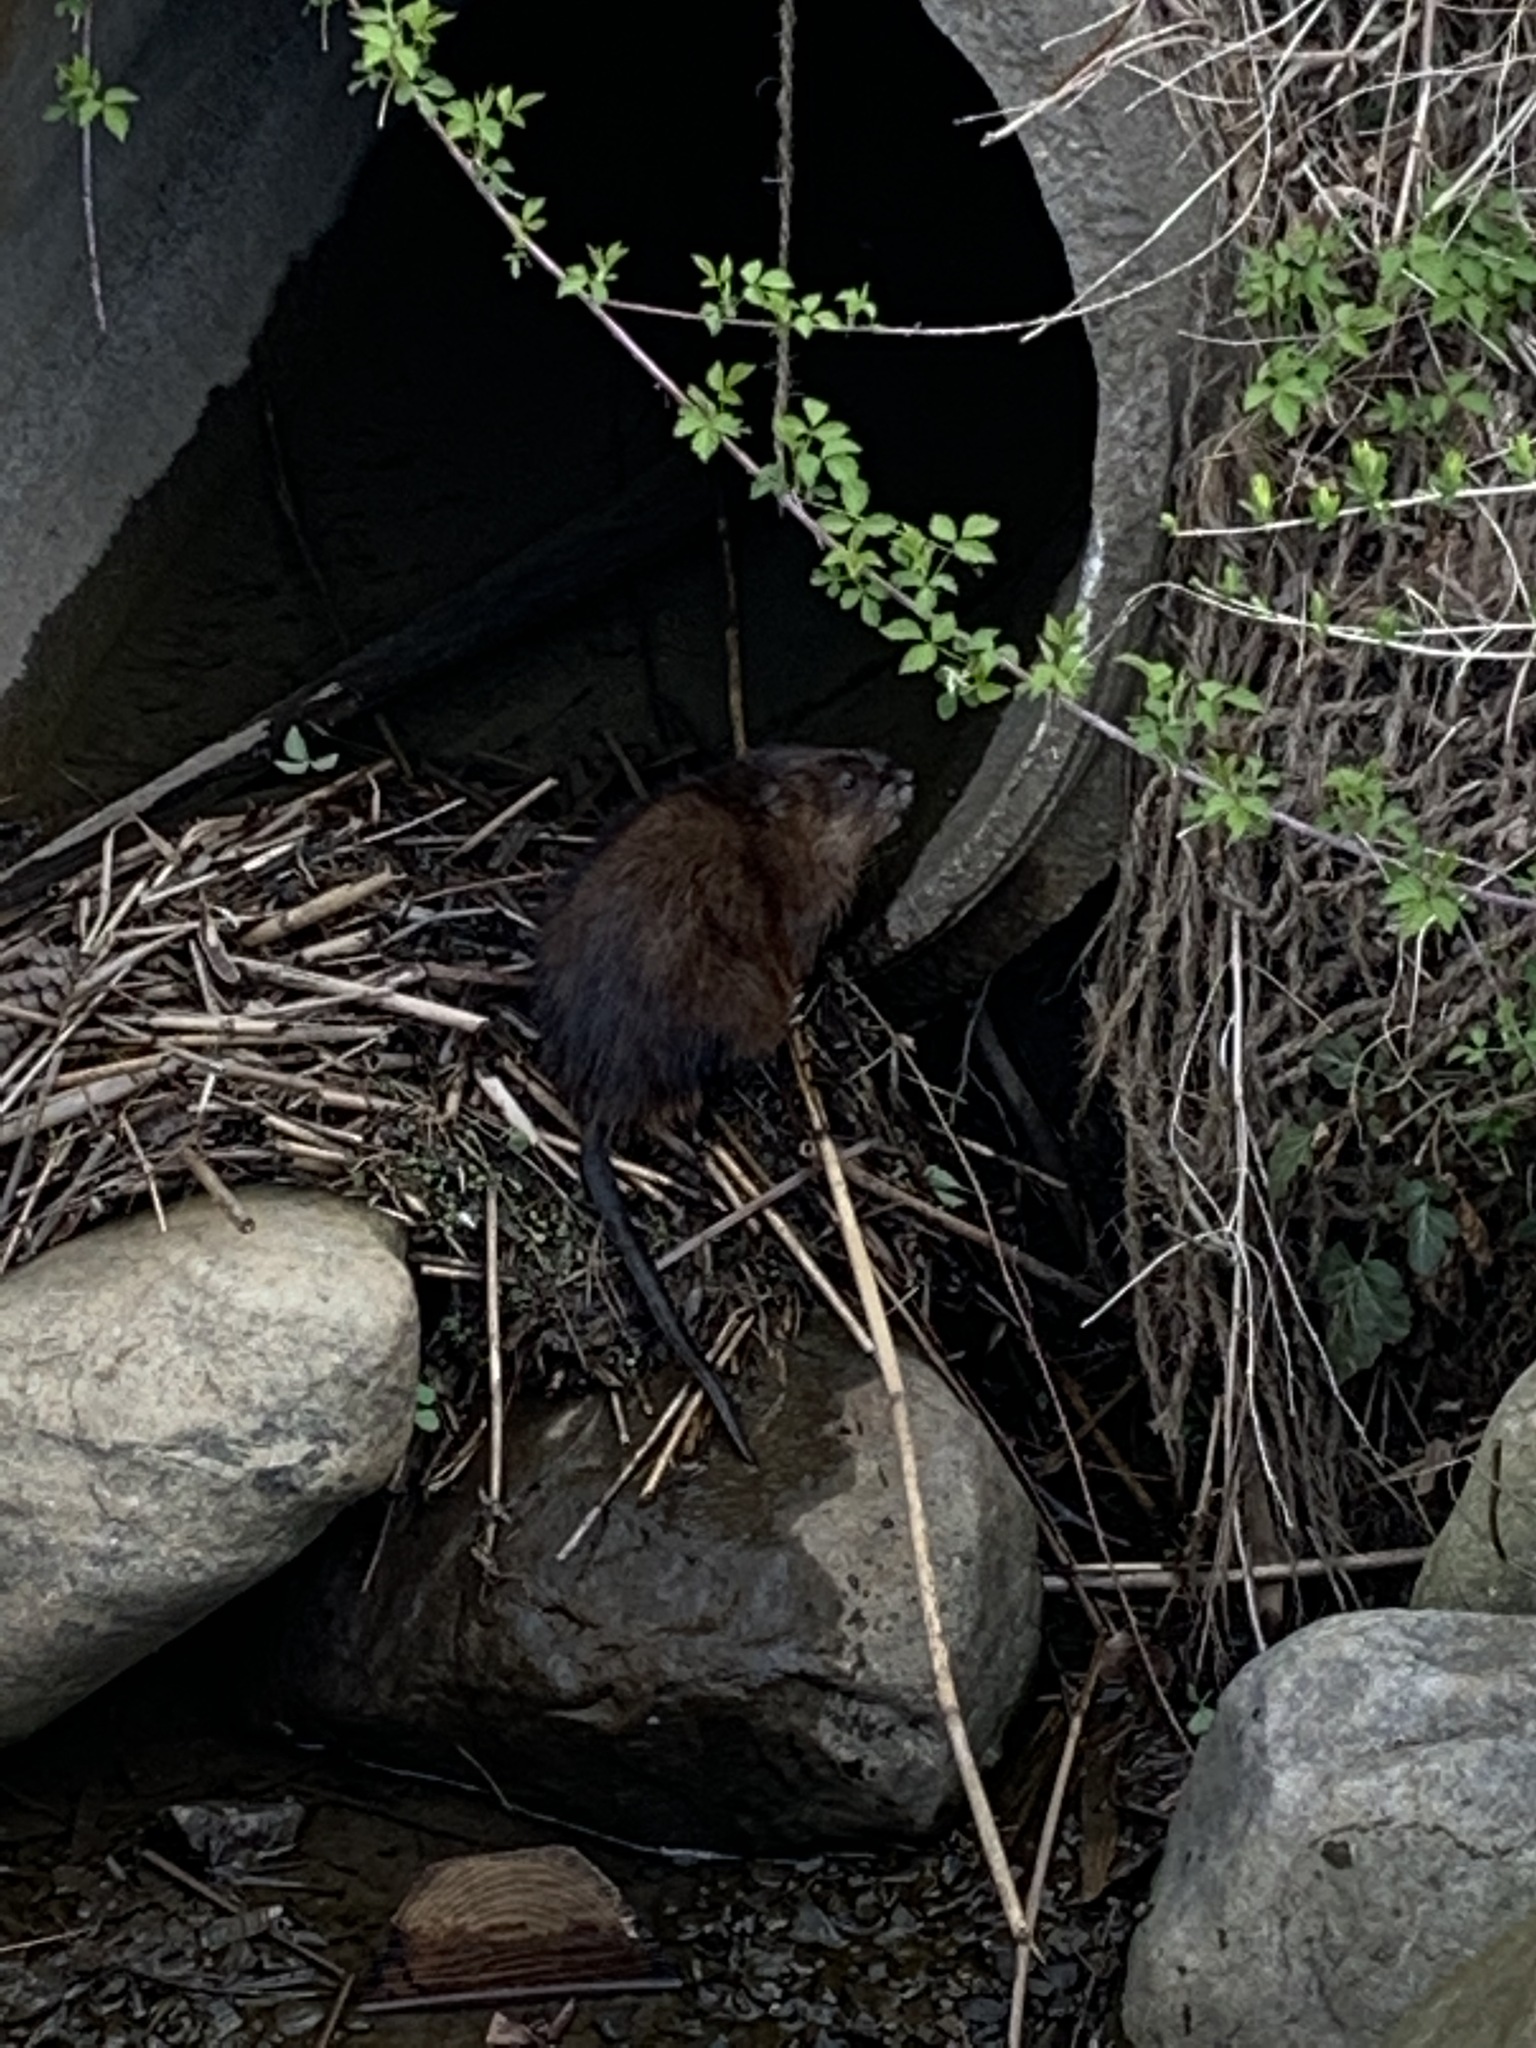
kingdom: Animalia
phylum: Chordata
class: Mammalia
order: Rodentia
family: Cricetidae
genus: Ondatra
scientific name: Ondatra zibethicus
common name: Muskrat
